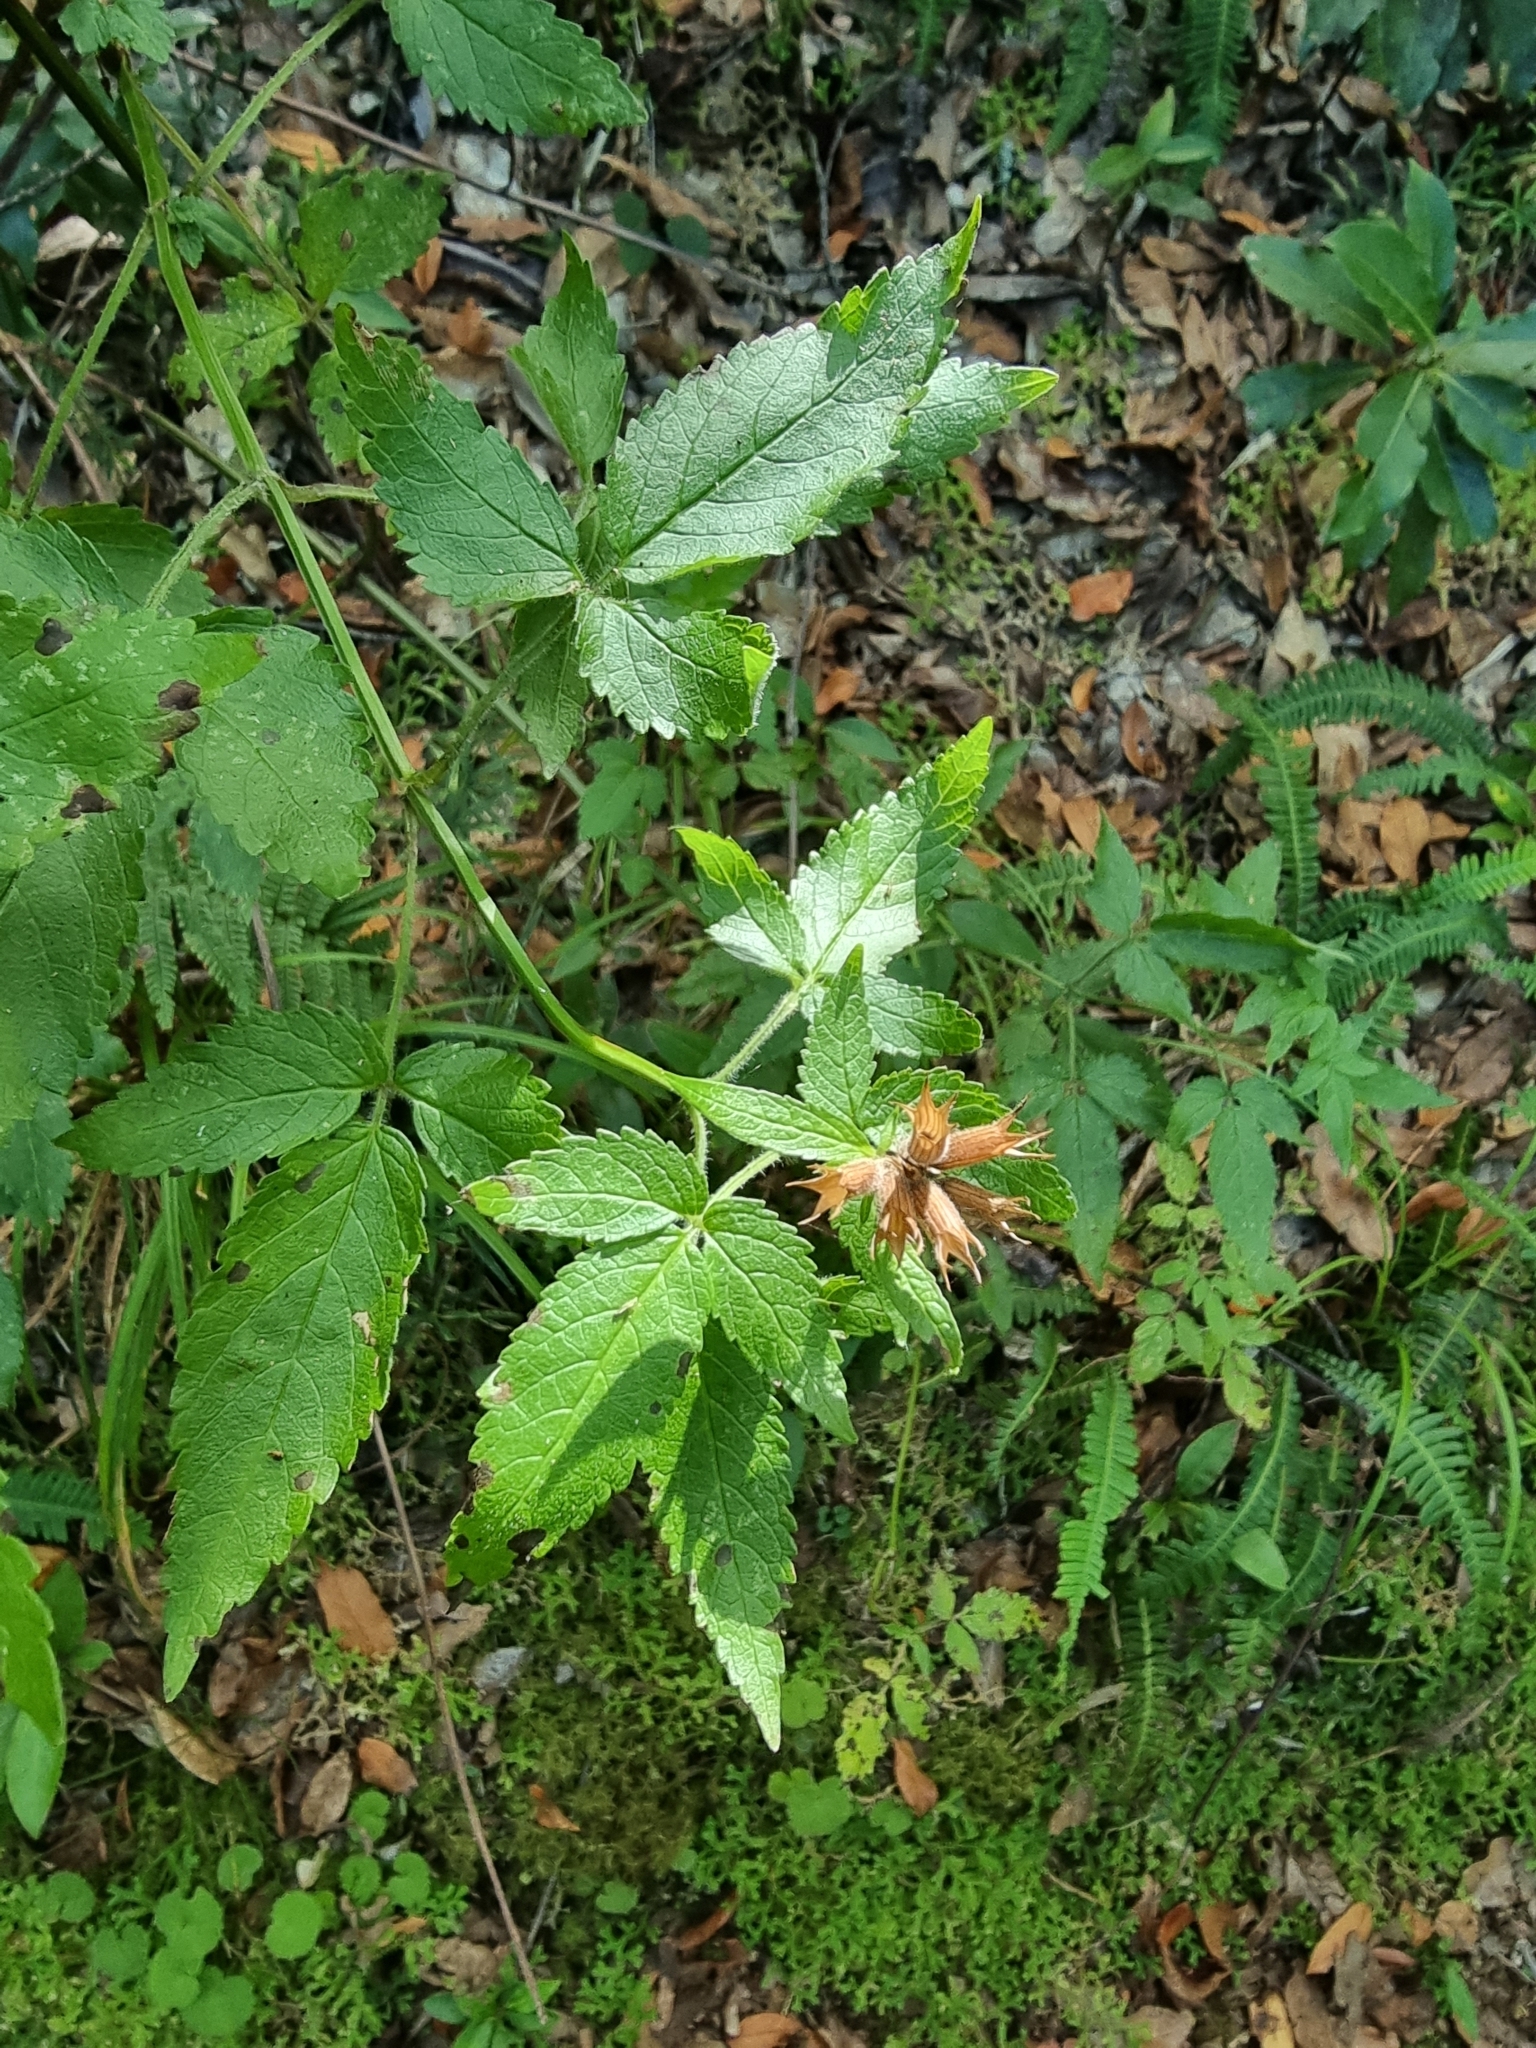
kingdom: Plantae
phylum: Tracheophyta
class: Magnoliopsida
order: Lamiales
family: Lamiaceae
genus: Cedronella
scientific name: Cedronella canariensis
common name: Canary islands balm
